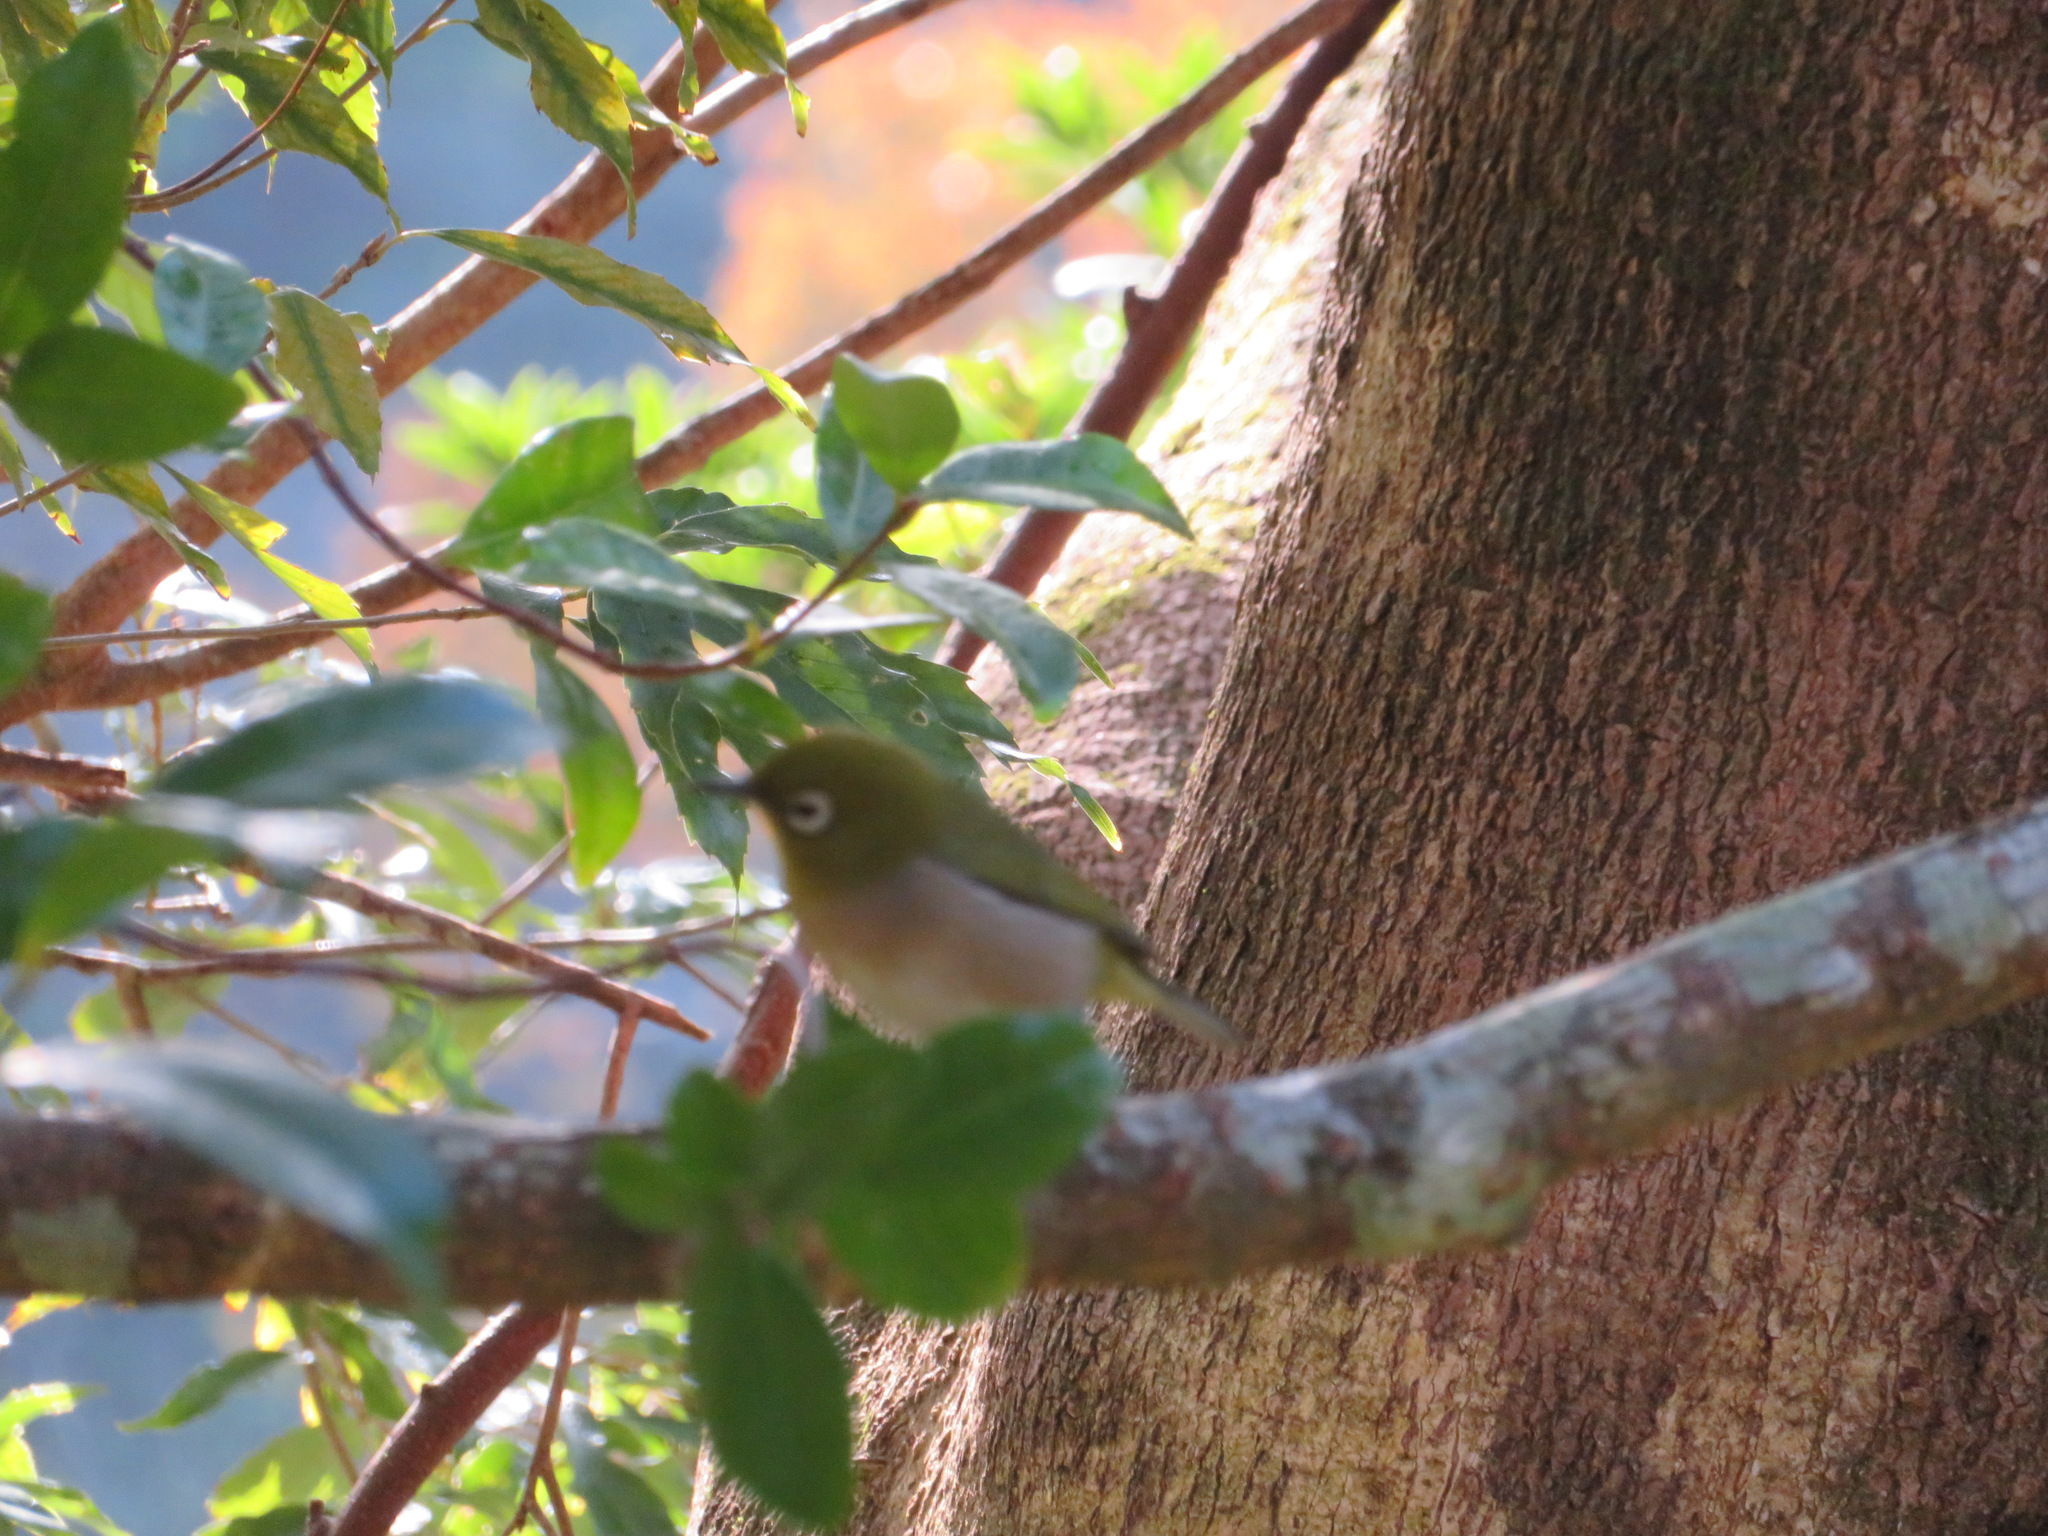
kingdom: Animalia
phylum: Chordata
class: Aves
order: Passeriformes
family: Zosteropidae
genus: Zosterops
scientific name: Zosterops japonicus
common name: Japanese white-eye
